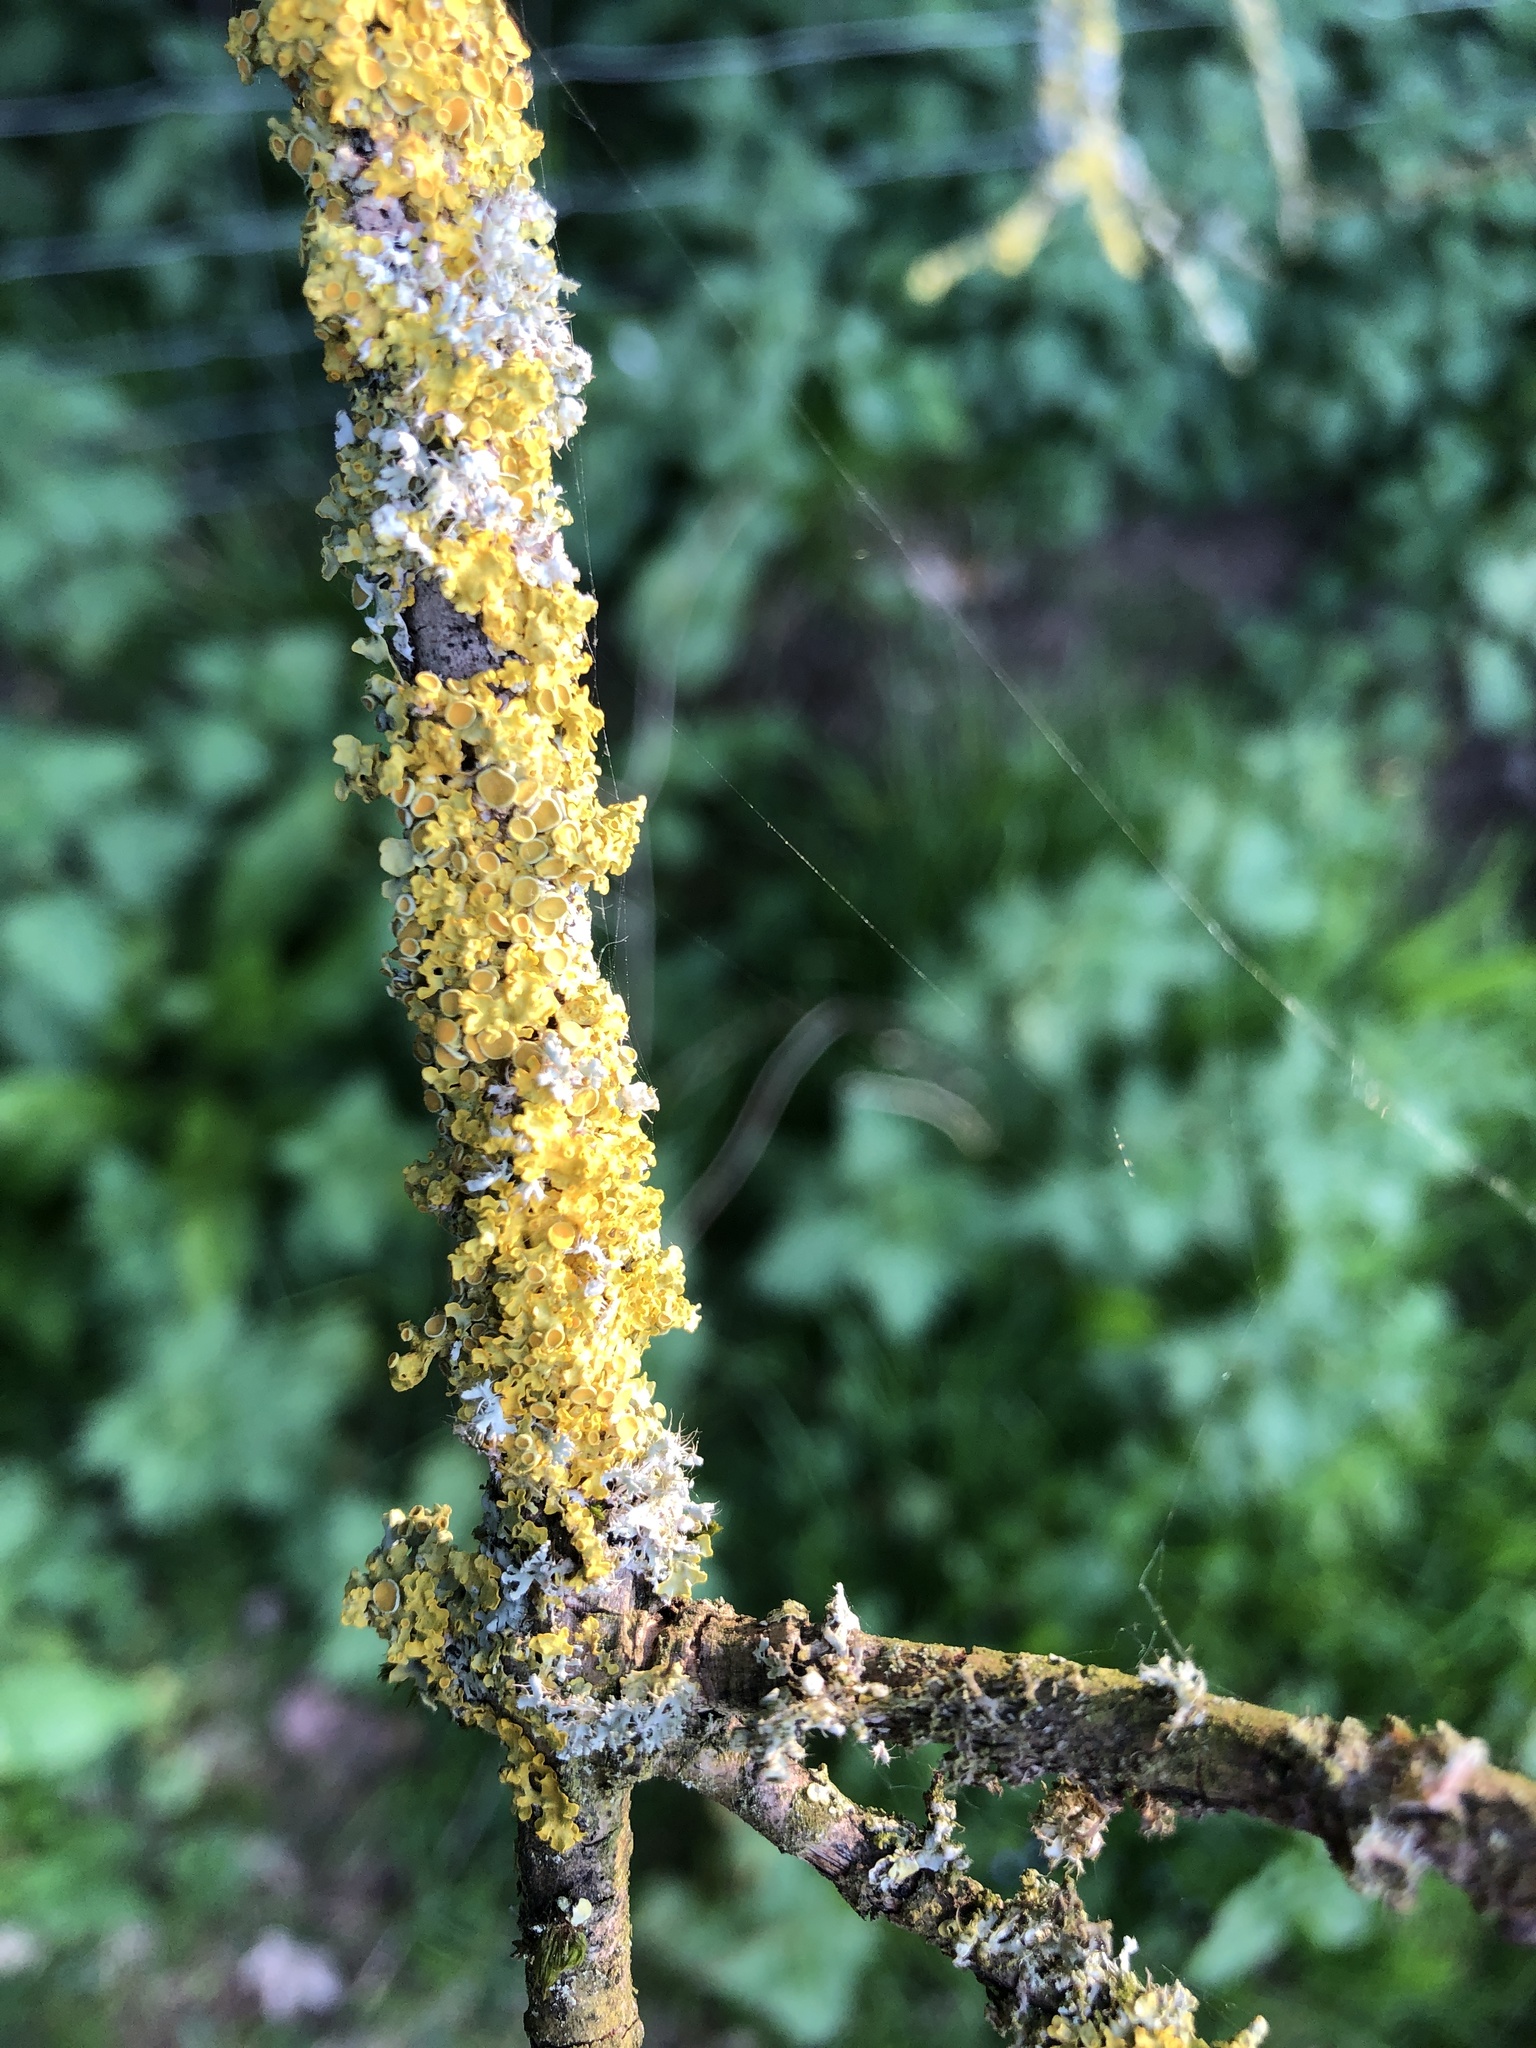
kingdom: Fungi
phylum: Ascomycota
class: Lecanoromycetes
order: Teloschistales
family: Teloschistaceae
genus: Xanthoria
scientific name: Xanthoria parietina
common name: Common orange lichen
